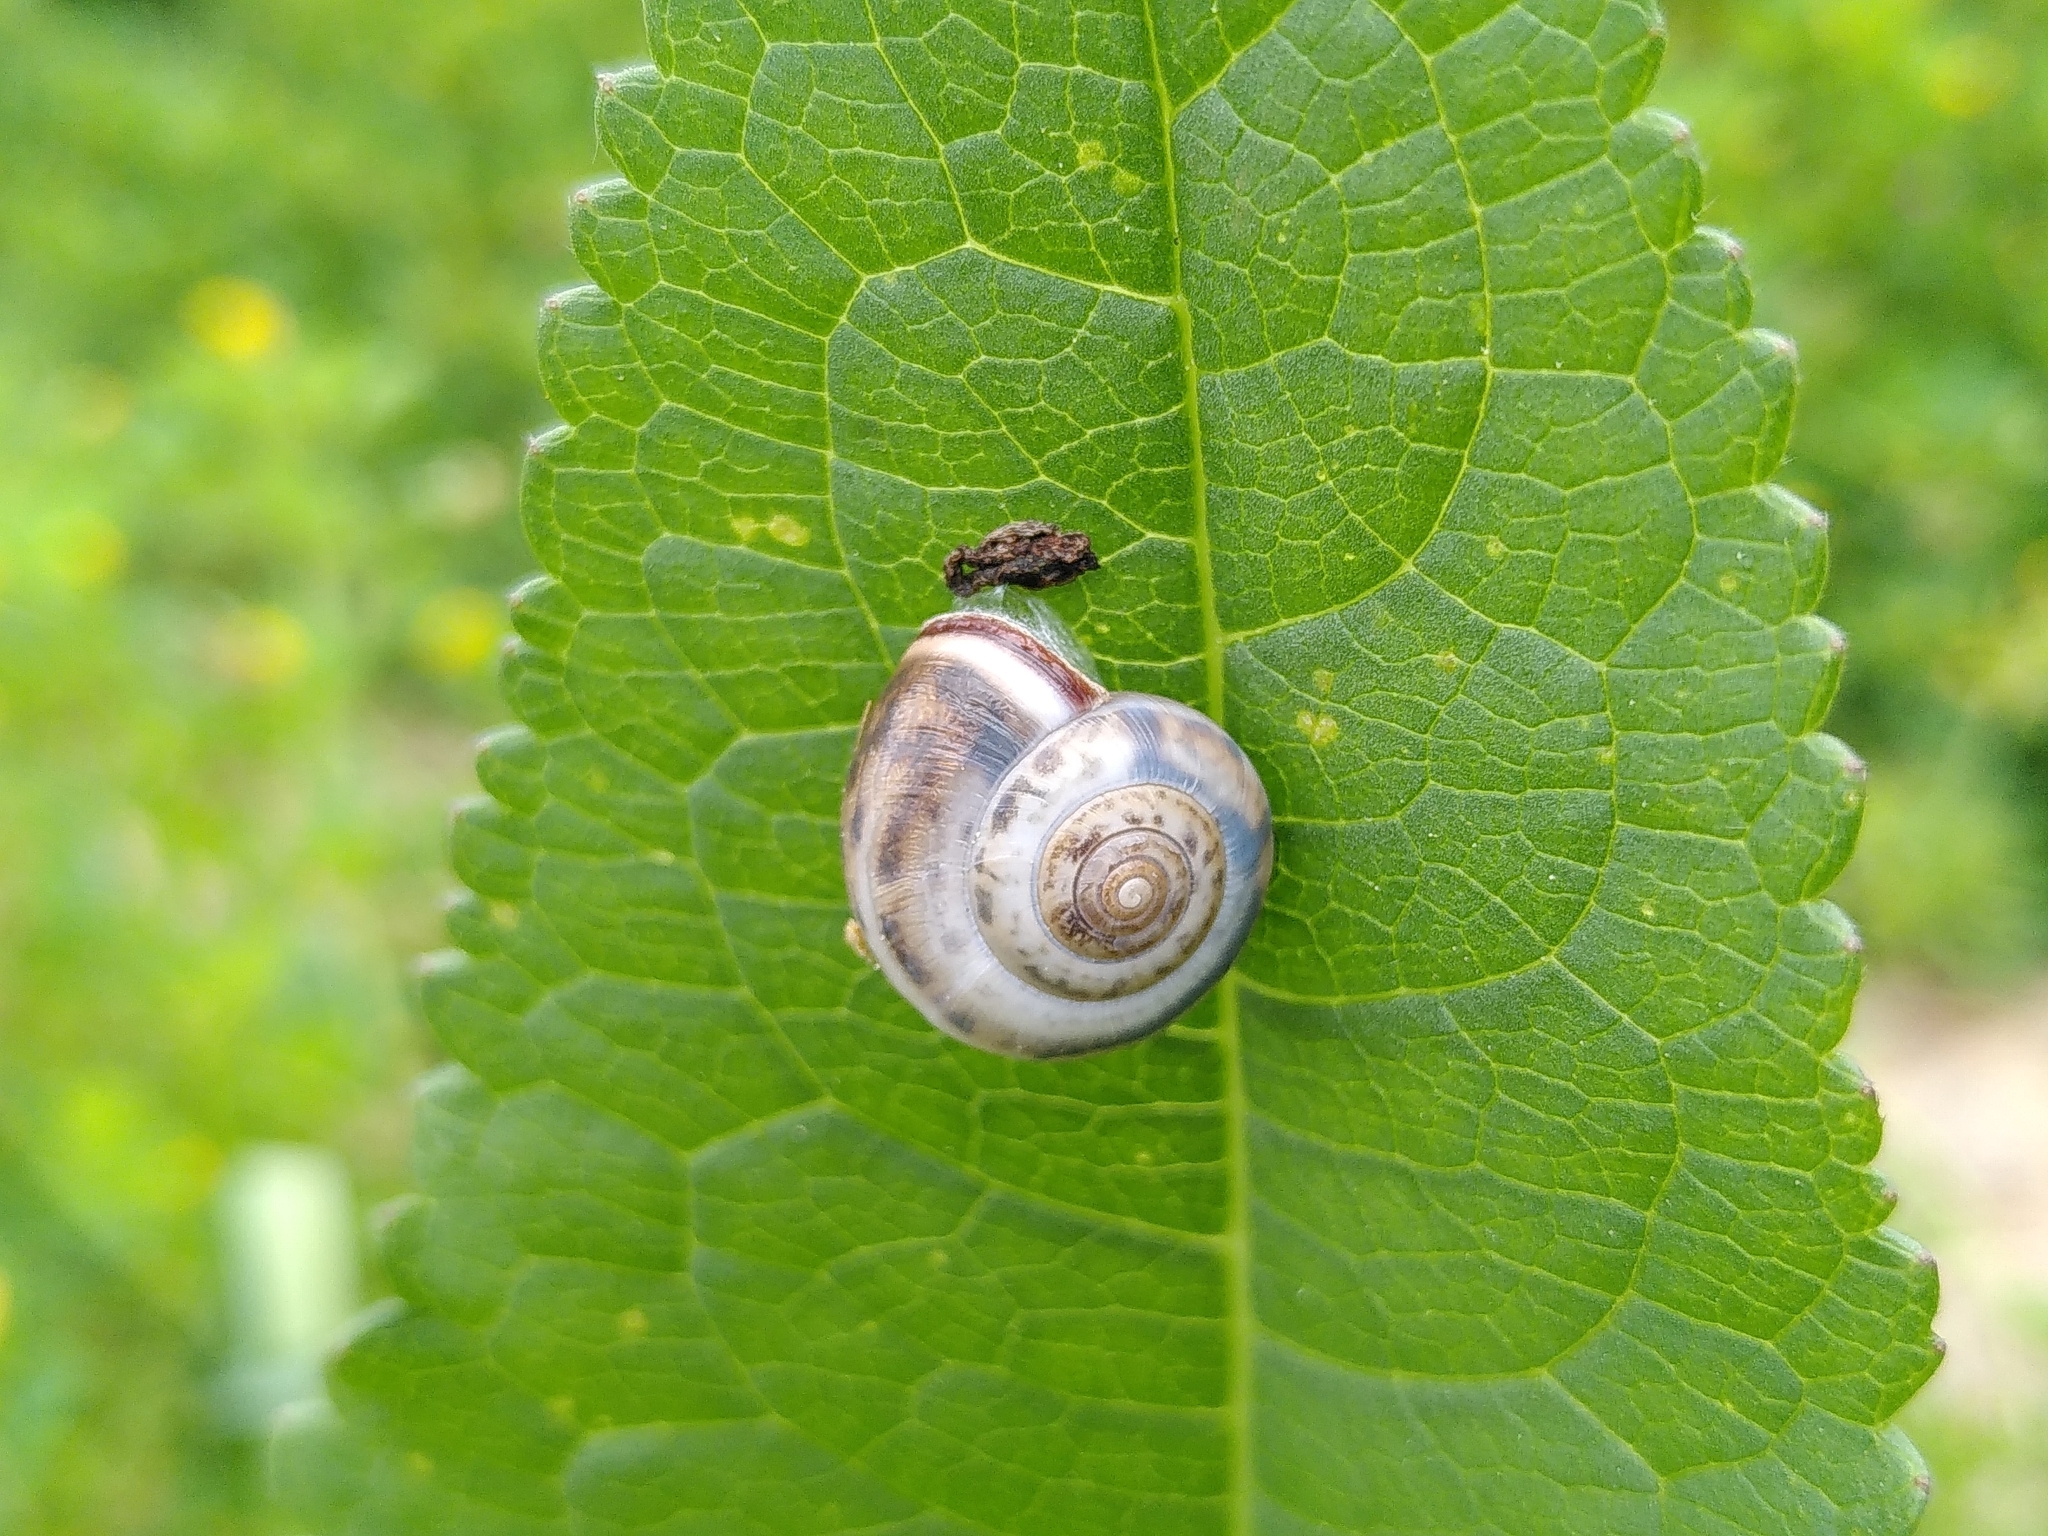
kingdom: Animalia
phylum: Mollusca
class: Gastropoda
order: Stylommatophora
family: Hygromiidae
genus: Monacha
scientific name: Monacha cartusiana
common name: Carthusian snail
